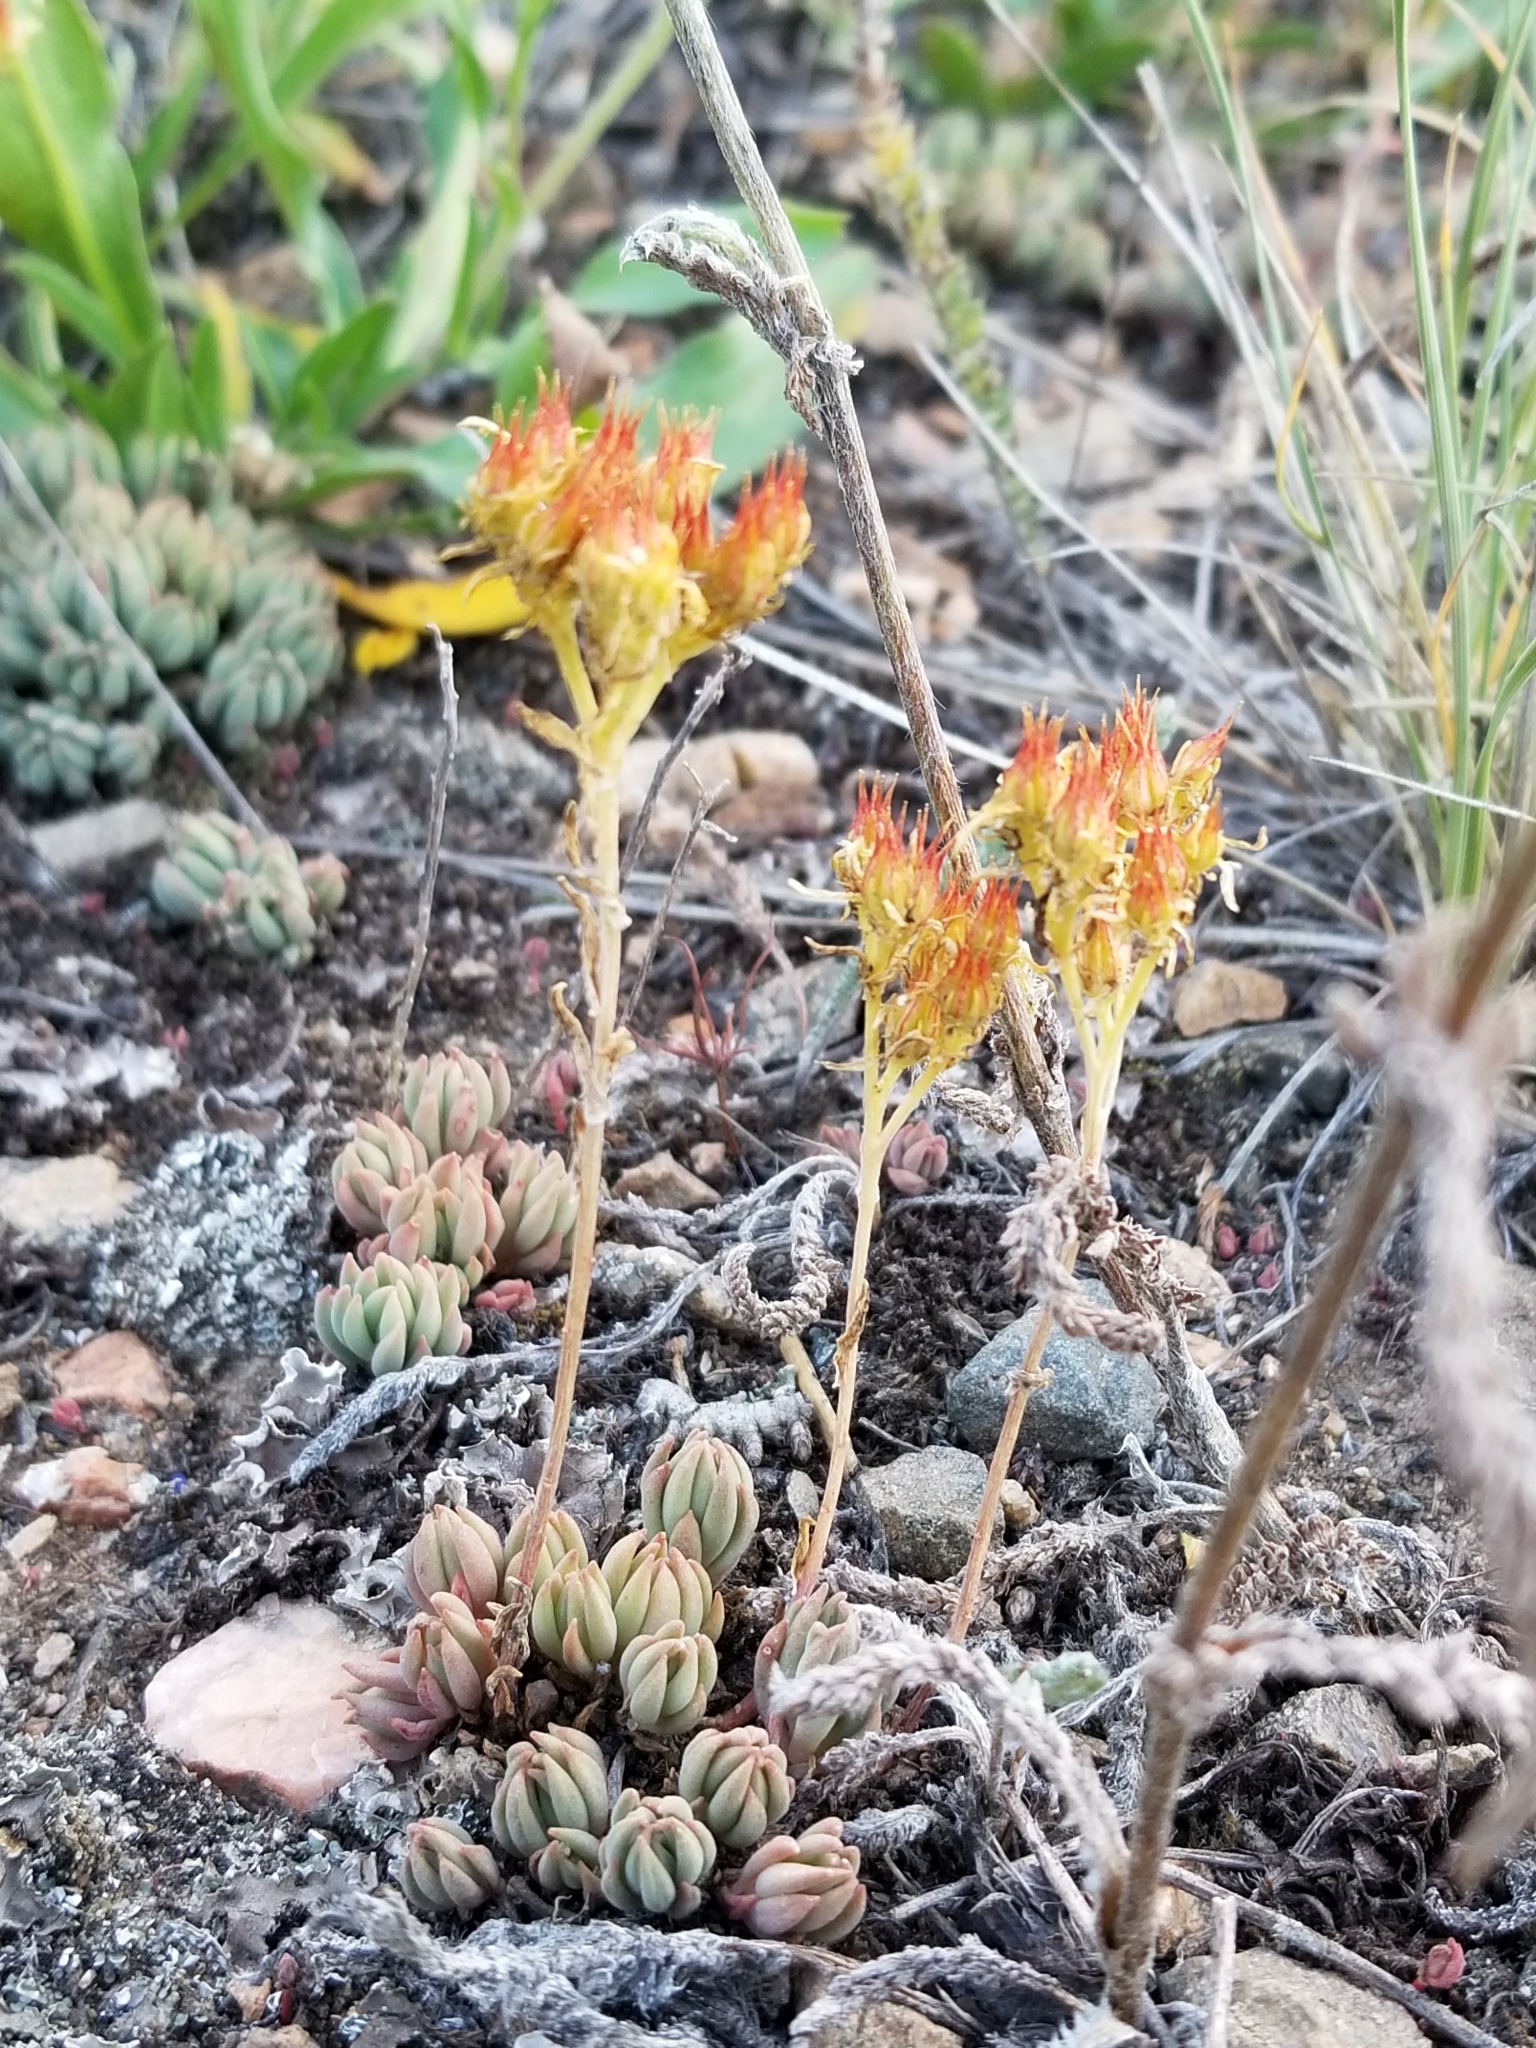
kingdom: Plantae
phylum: Tracheophyta
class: Magnoliopsida
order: Saxifragales
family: Crassulaceae
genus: Sedum
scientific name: Sedum lanceolatum
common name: Common stonecrop
